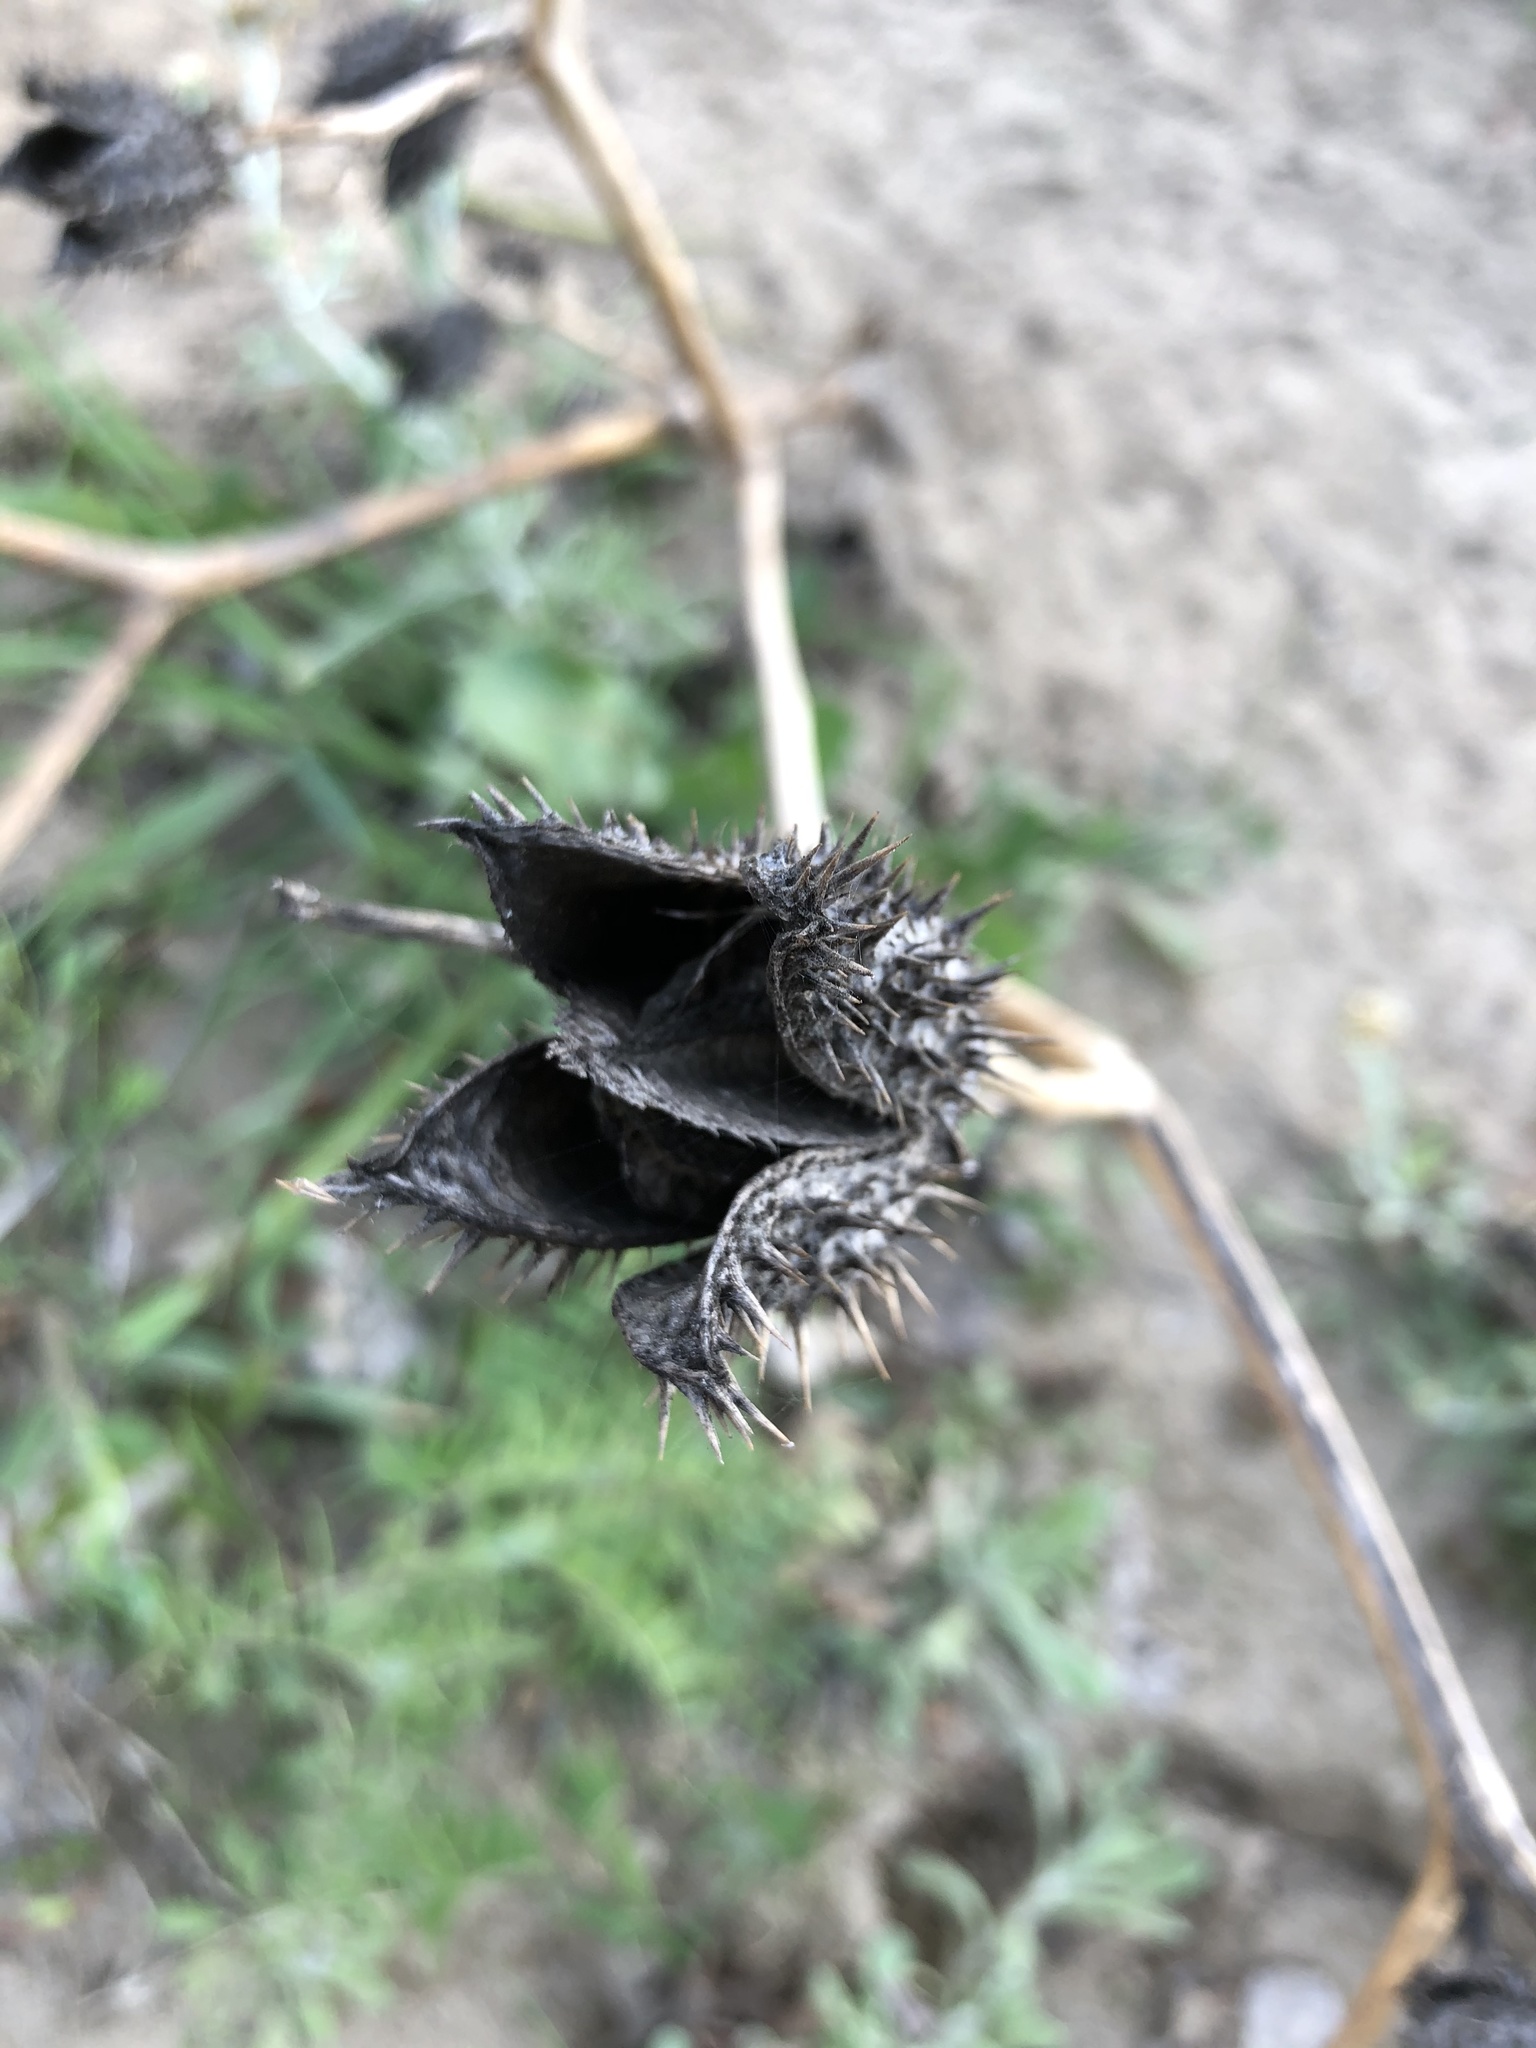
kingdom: Plantae
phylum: Tracheophyta
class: Magnoliopsida
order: Solanales
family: Solanaceae
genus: Datura
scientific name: Datura stramonium
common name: Thorn-apple
